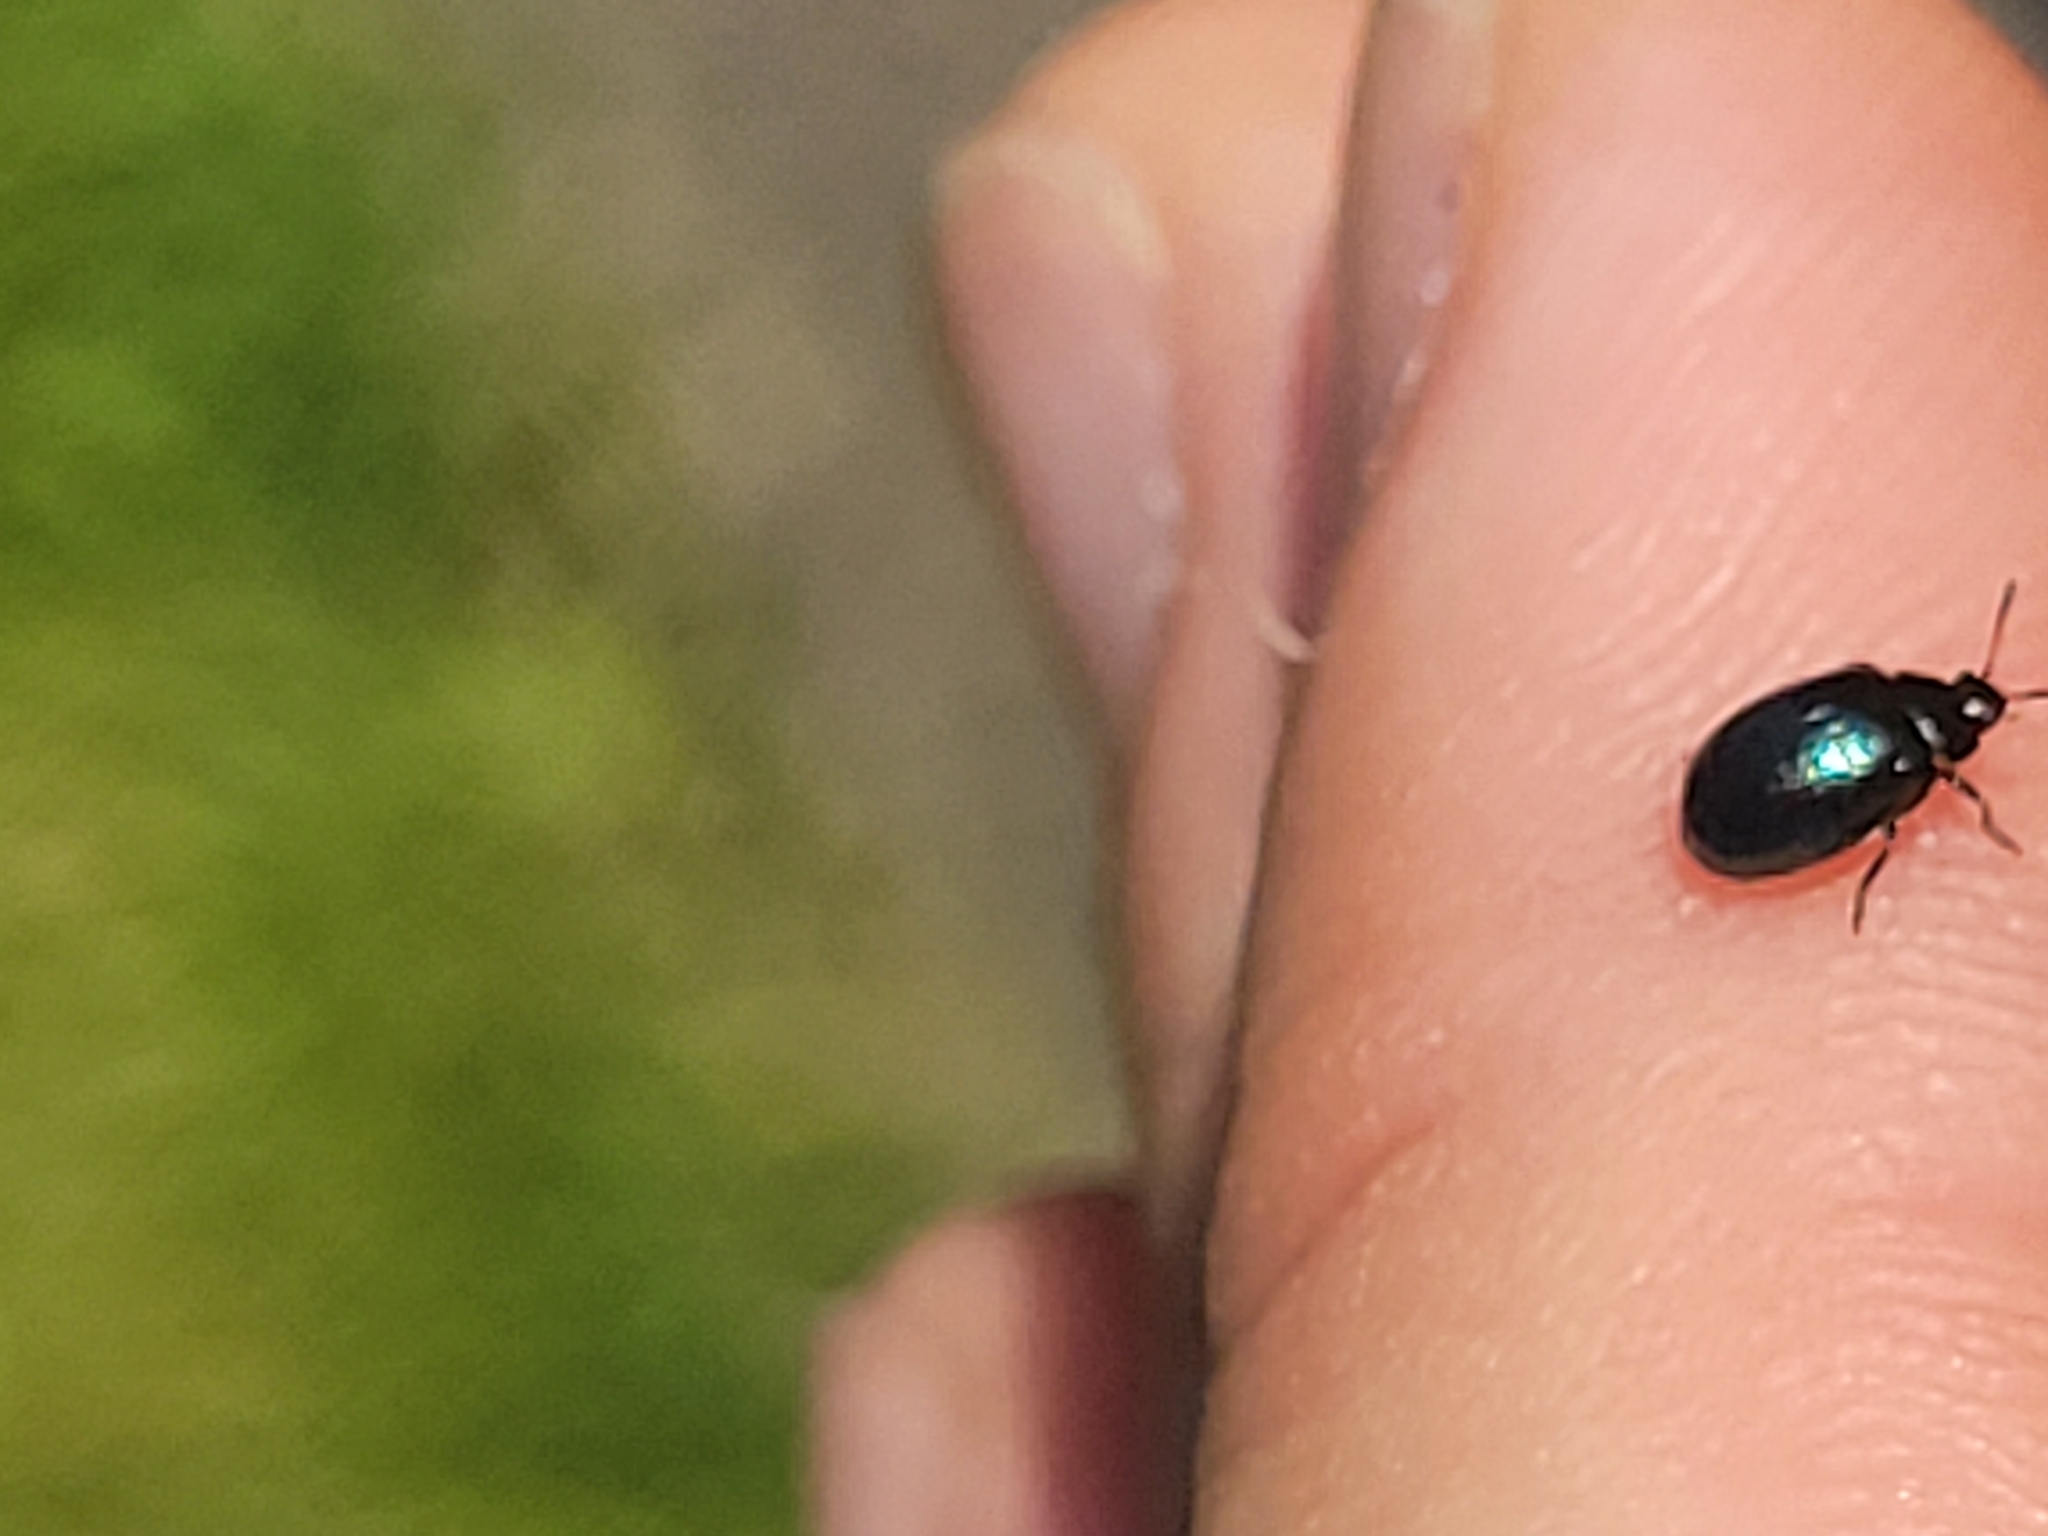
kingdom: Animalia
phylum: Arthropoda
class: Insecta
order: Coleoptera
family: Chrysomelidae
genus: Plagiodera
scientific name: Plagiodera versicolora
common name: Imported willow leaf beetle
